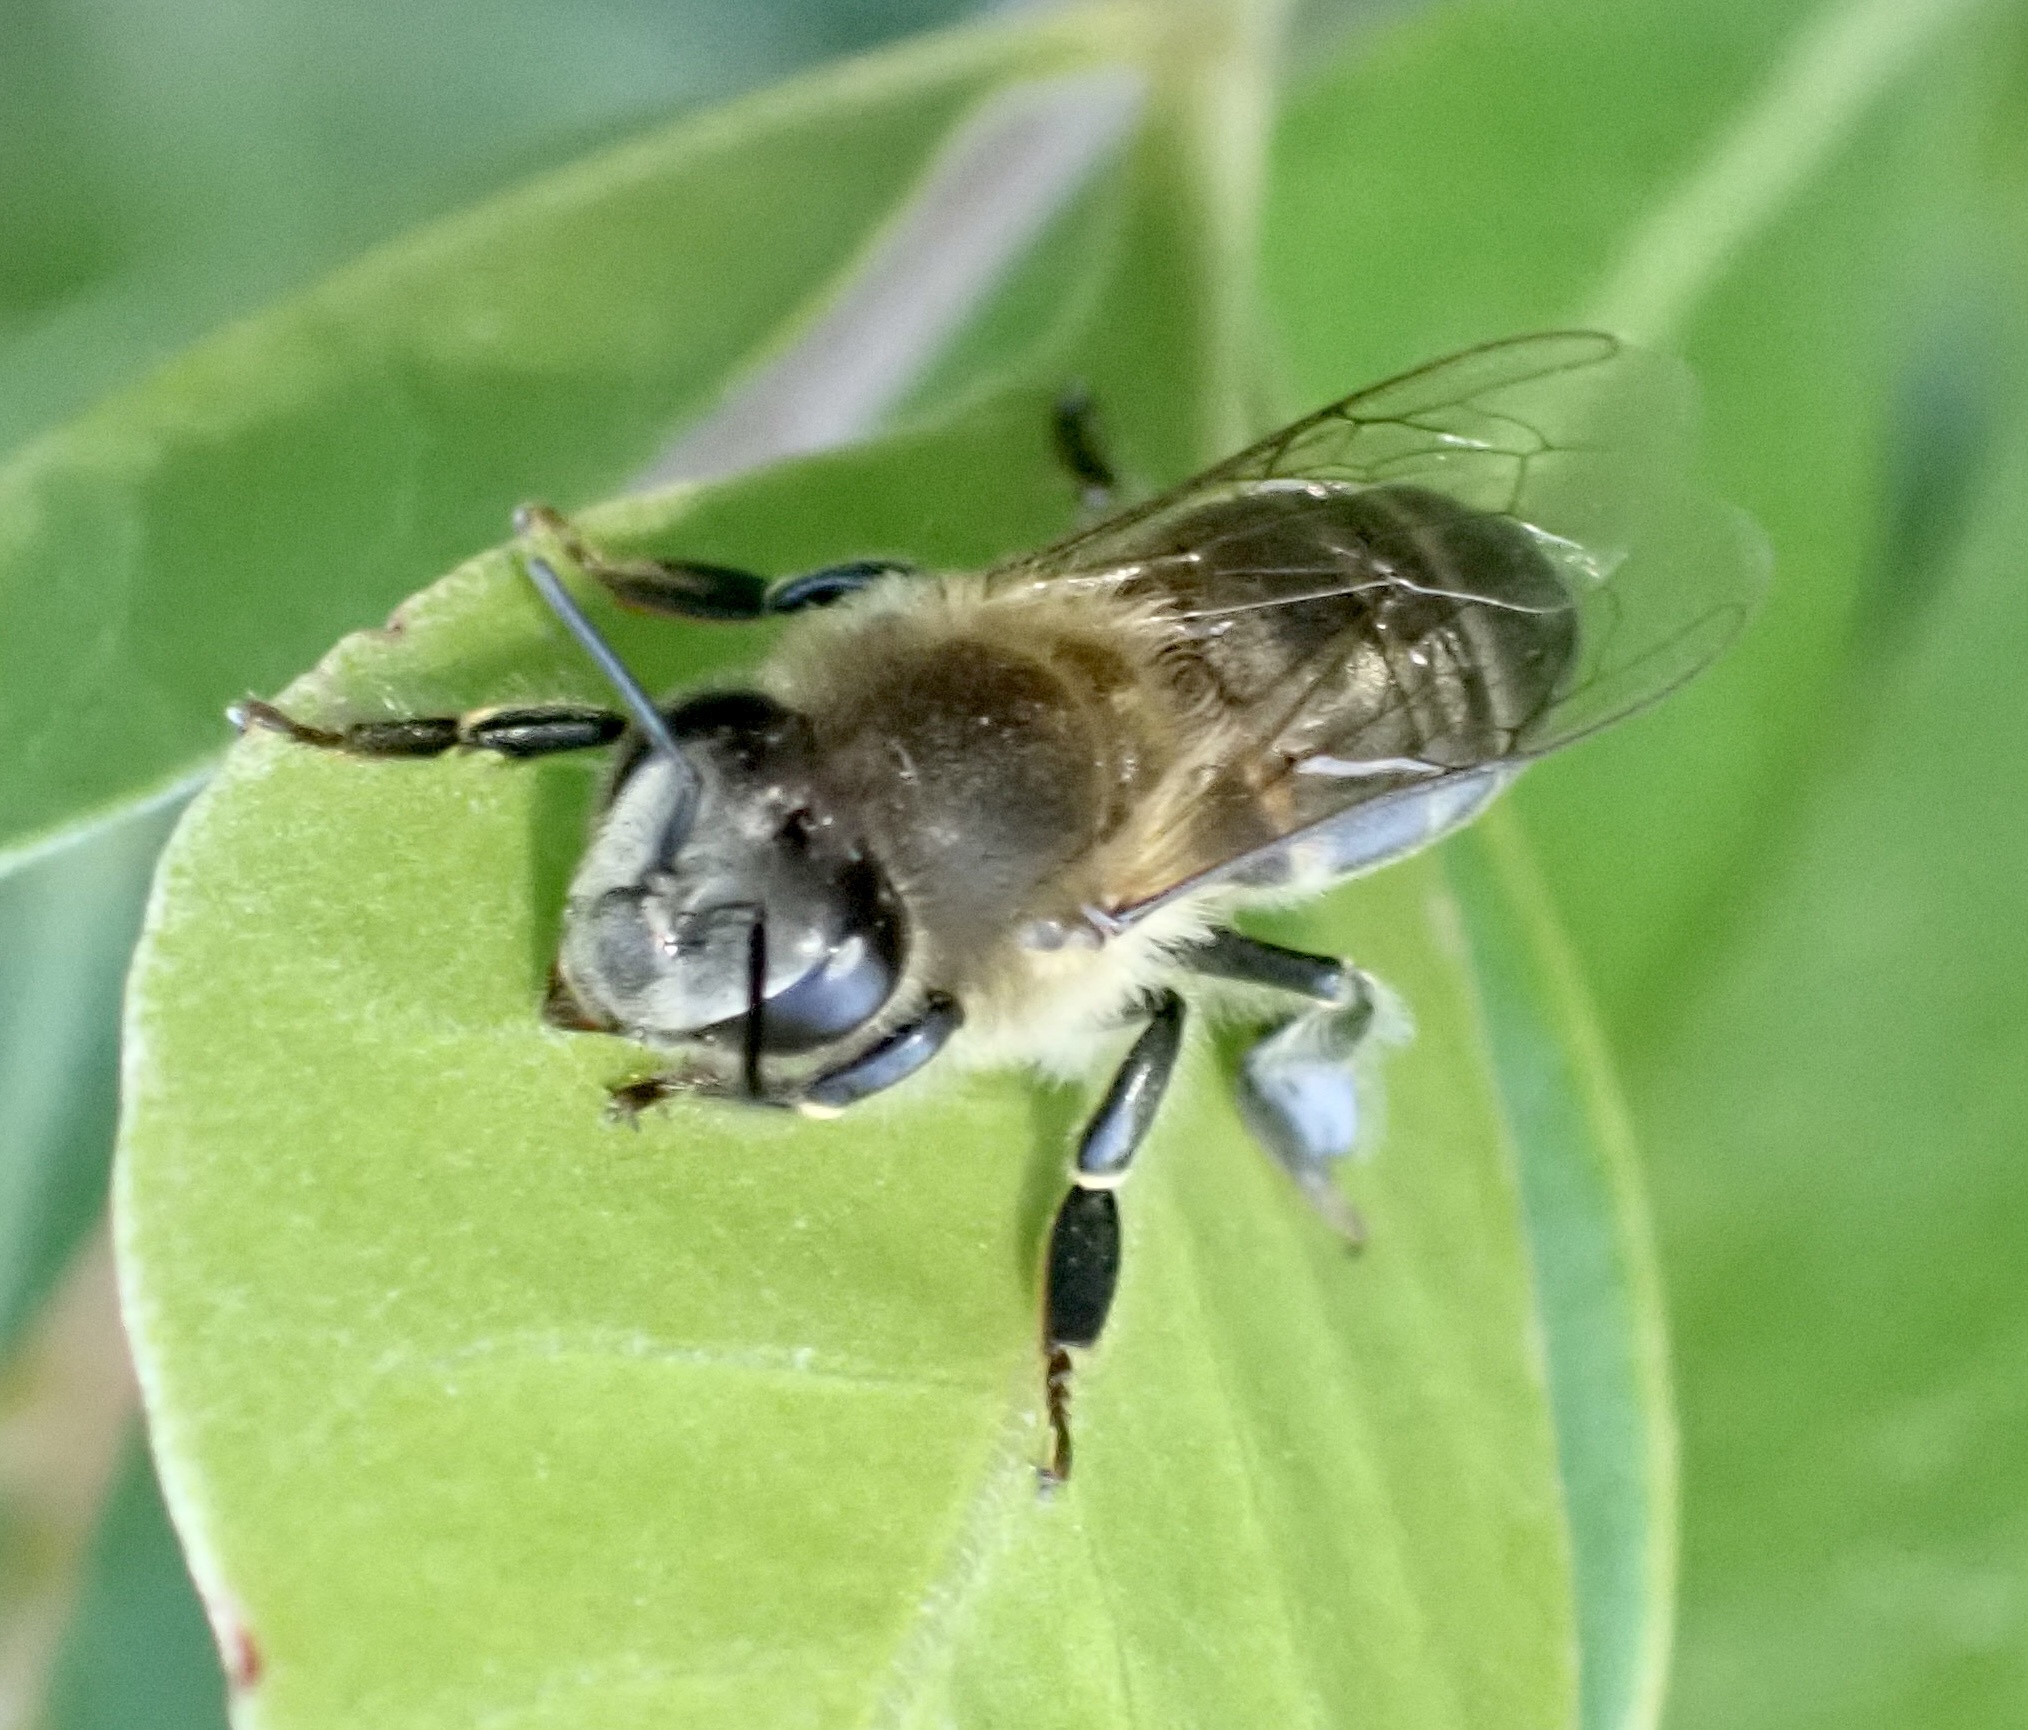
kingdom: Animalia
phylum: Arthropoda
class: Insecta
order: Hymenoptera
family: Apidae
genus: Apis
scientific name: Apis mellifera
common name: Honey bee
